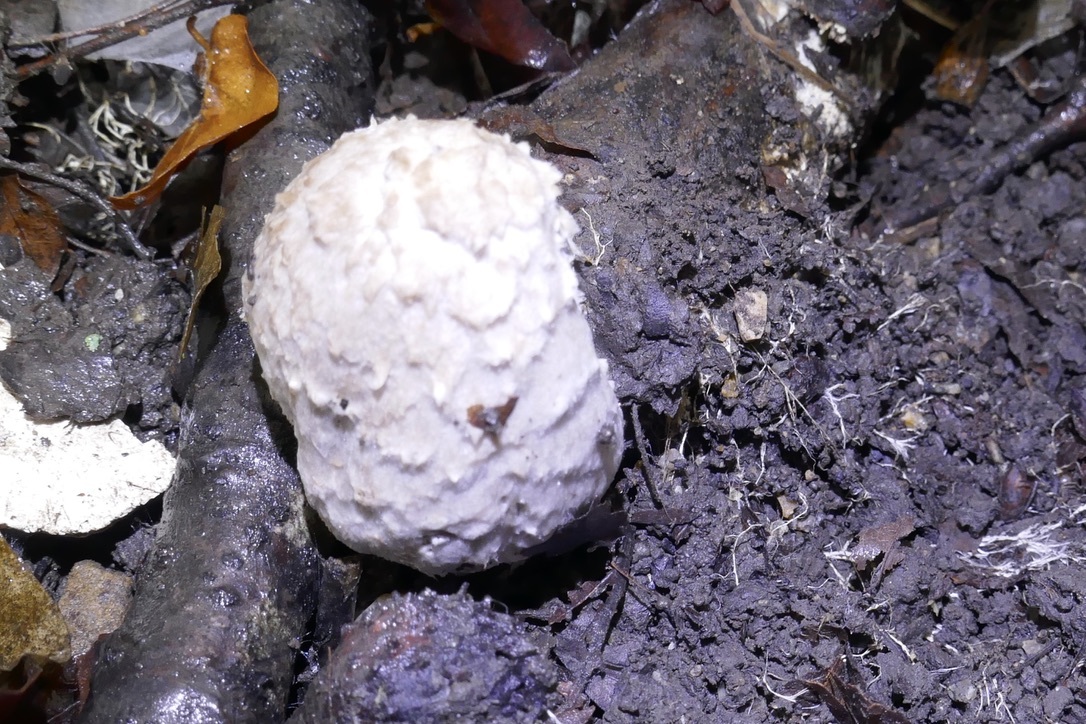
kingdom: Fungi
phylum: Basidiomycota
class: Agaricomycetes
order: Agaricales
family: Agaricaceae
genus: Coprinus
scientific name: Coprinus comatus
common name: Lawyer's wig
